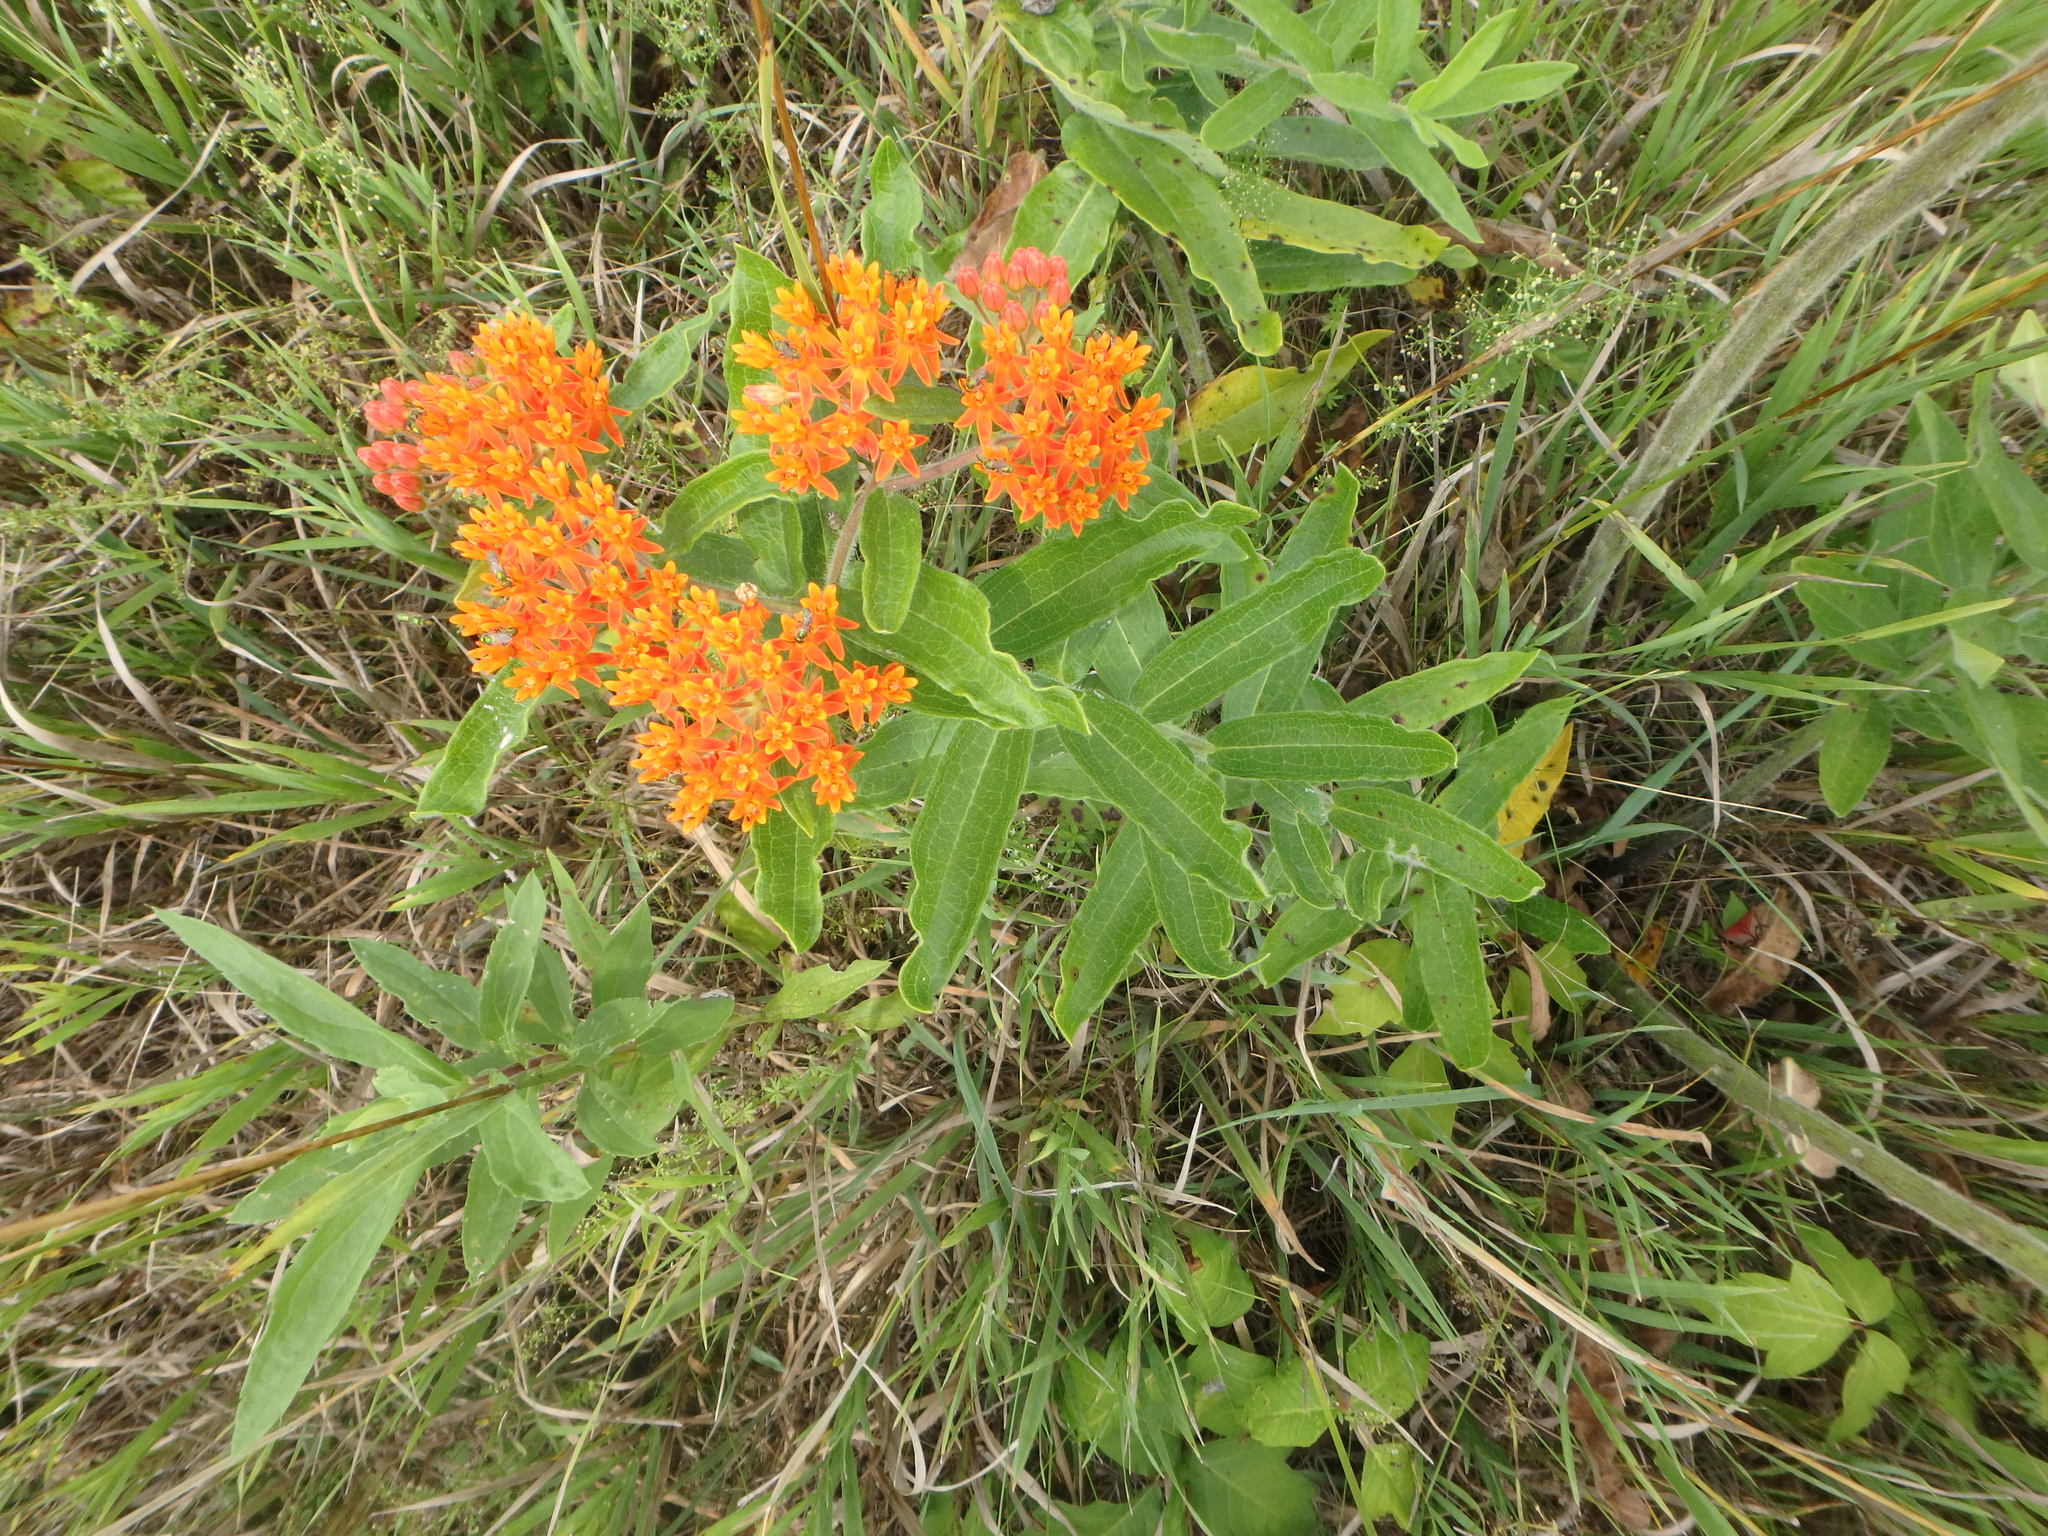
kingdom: Plantae
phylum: Tracheophyta
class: Magnoliopsida
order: Gentianales
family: Apocynaceae
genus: Asclepias
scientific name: Asclepias tuberosa
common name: Butterfly milkweed
